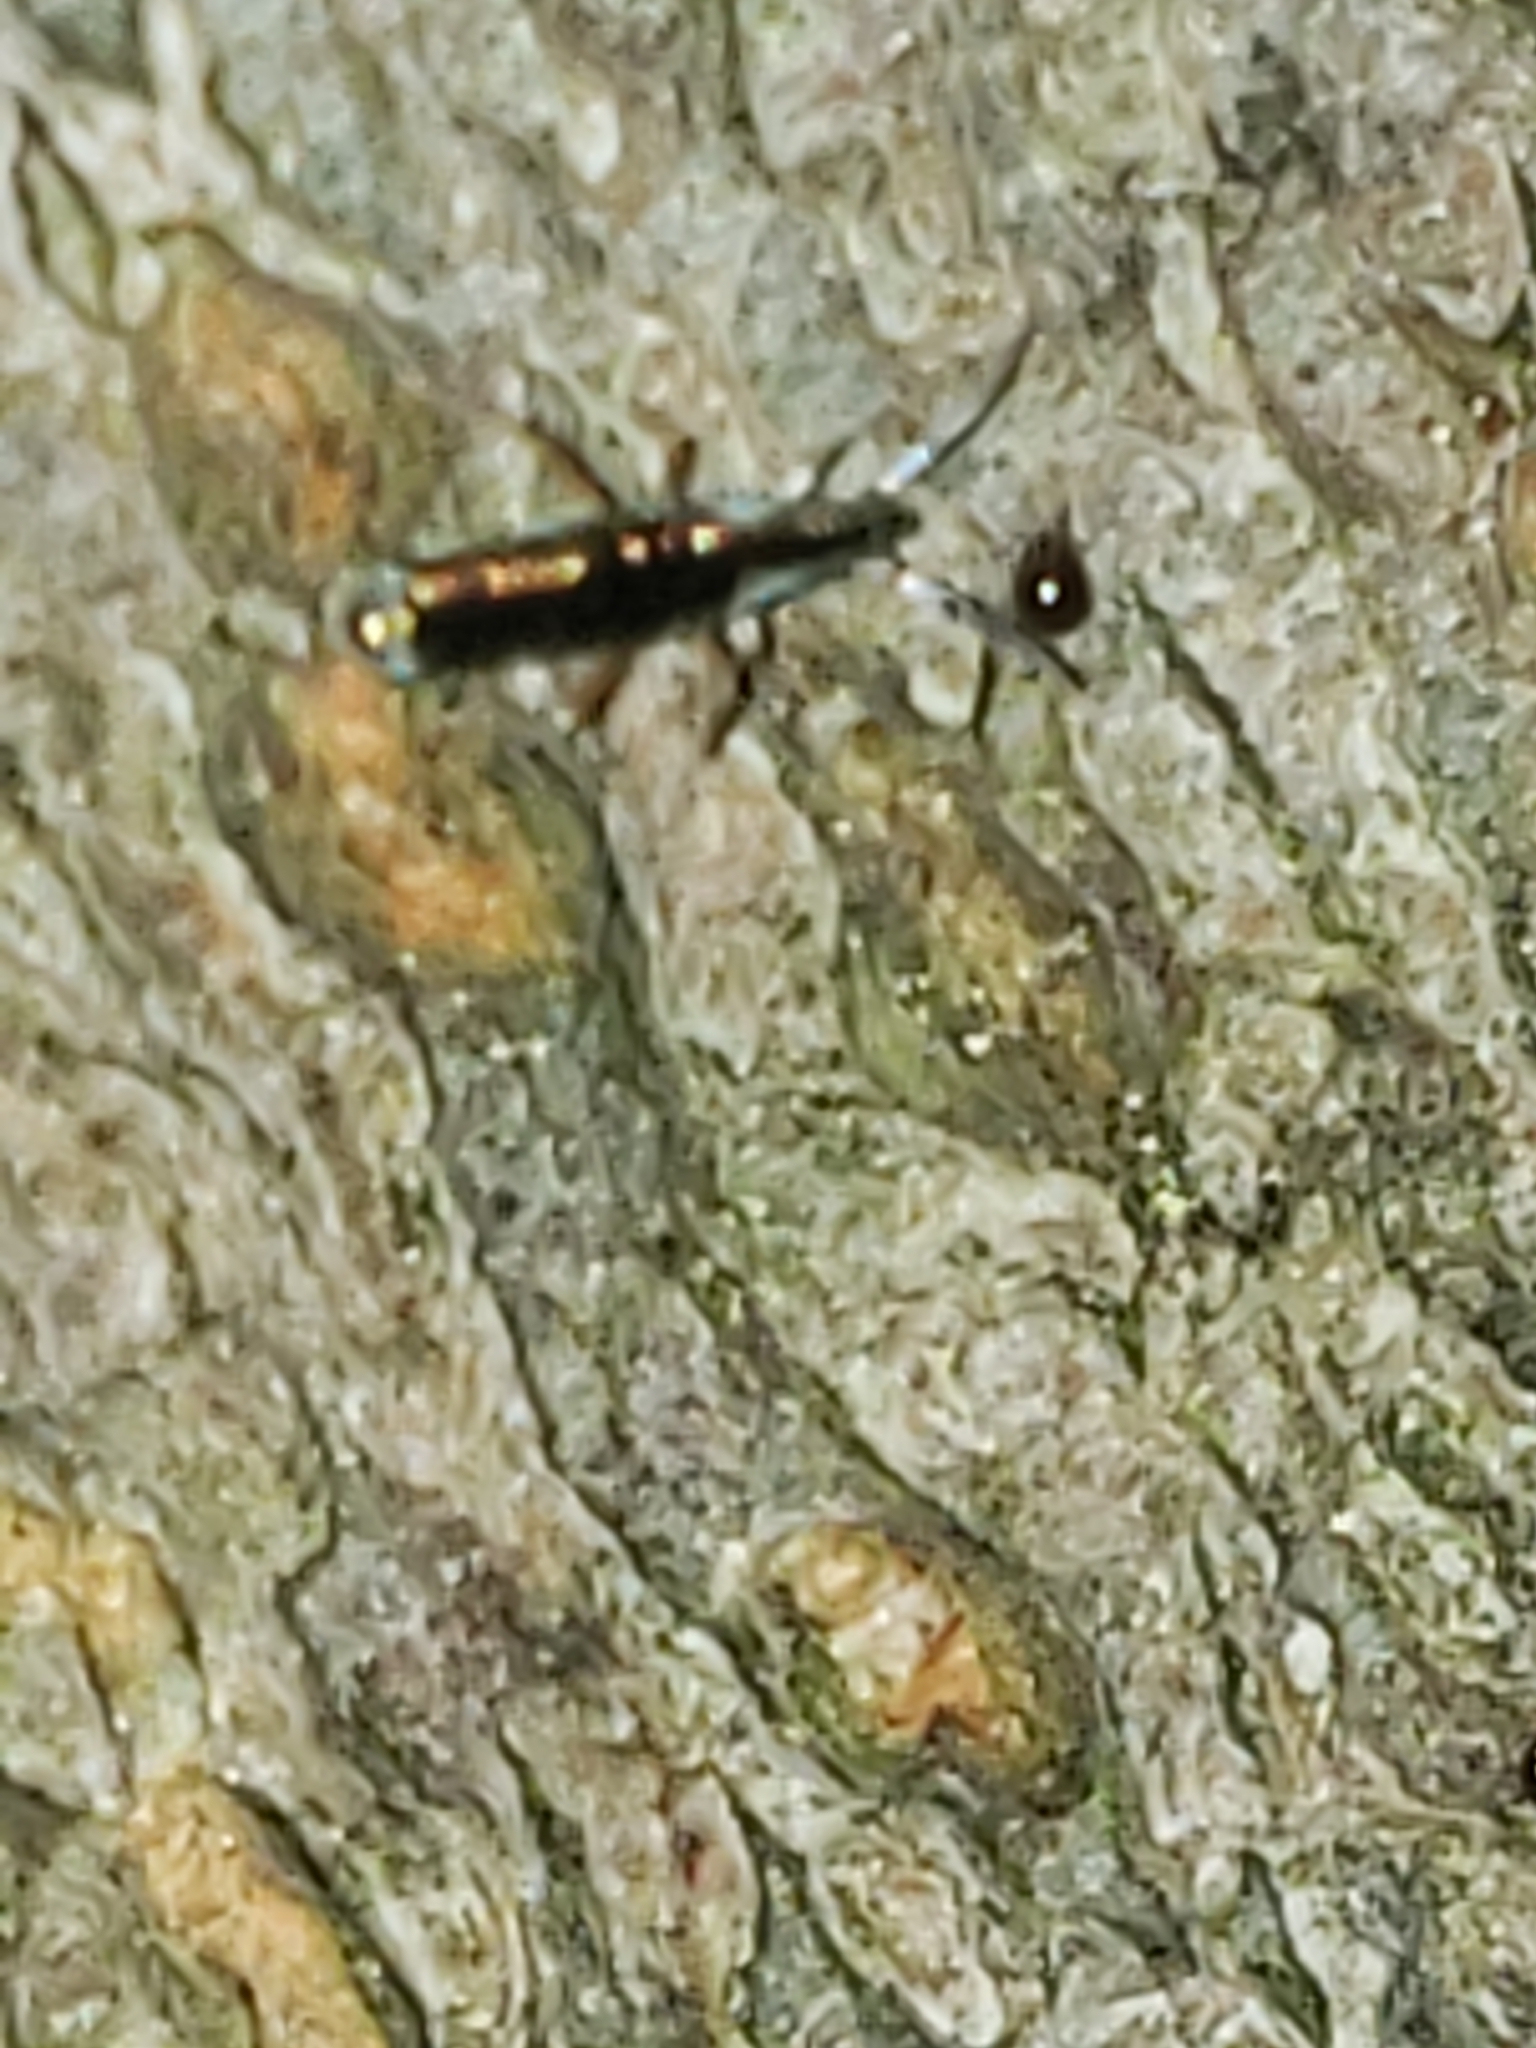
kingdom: Animalia
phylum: Arthropoda
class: Collembola
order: Entomobryomorpha
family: Entomobryidae
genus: Lepidocyrtus
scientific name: Lepidocyrtus paradoxus
